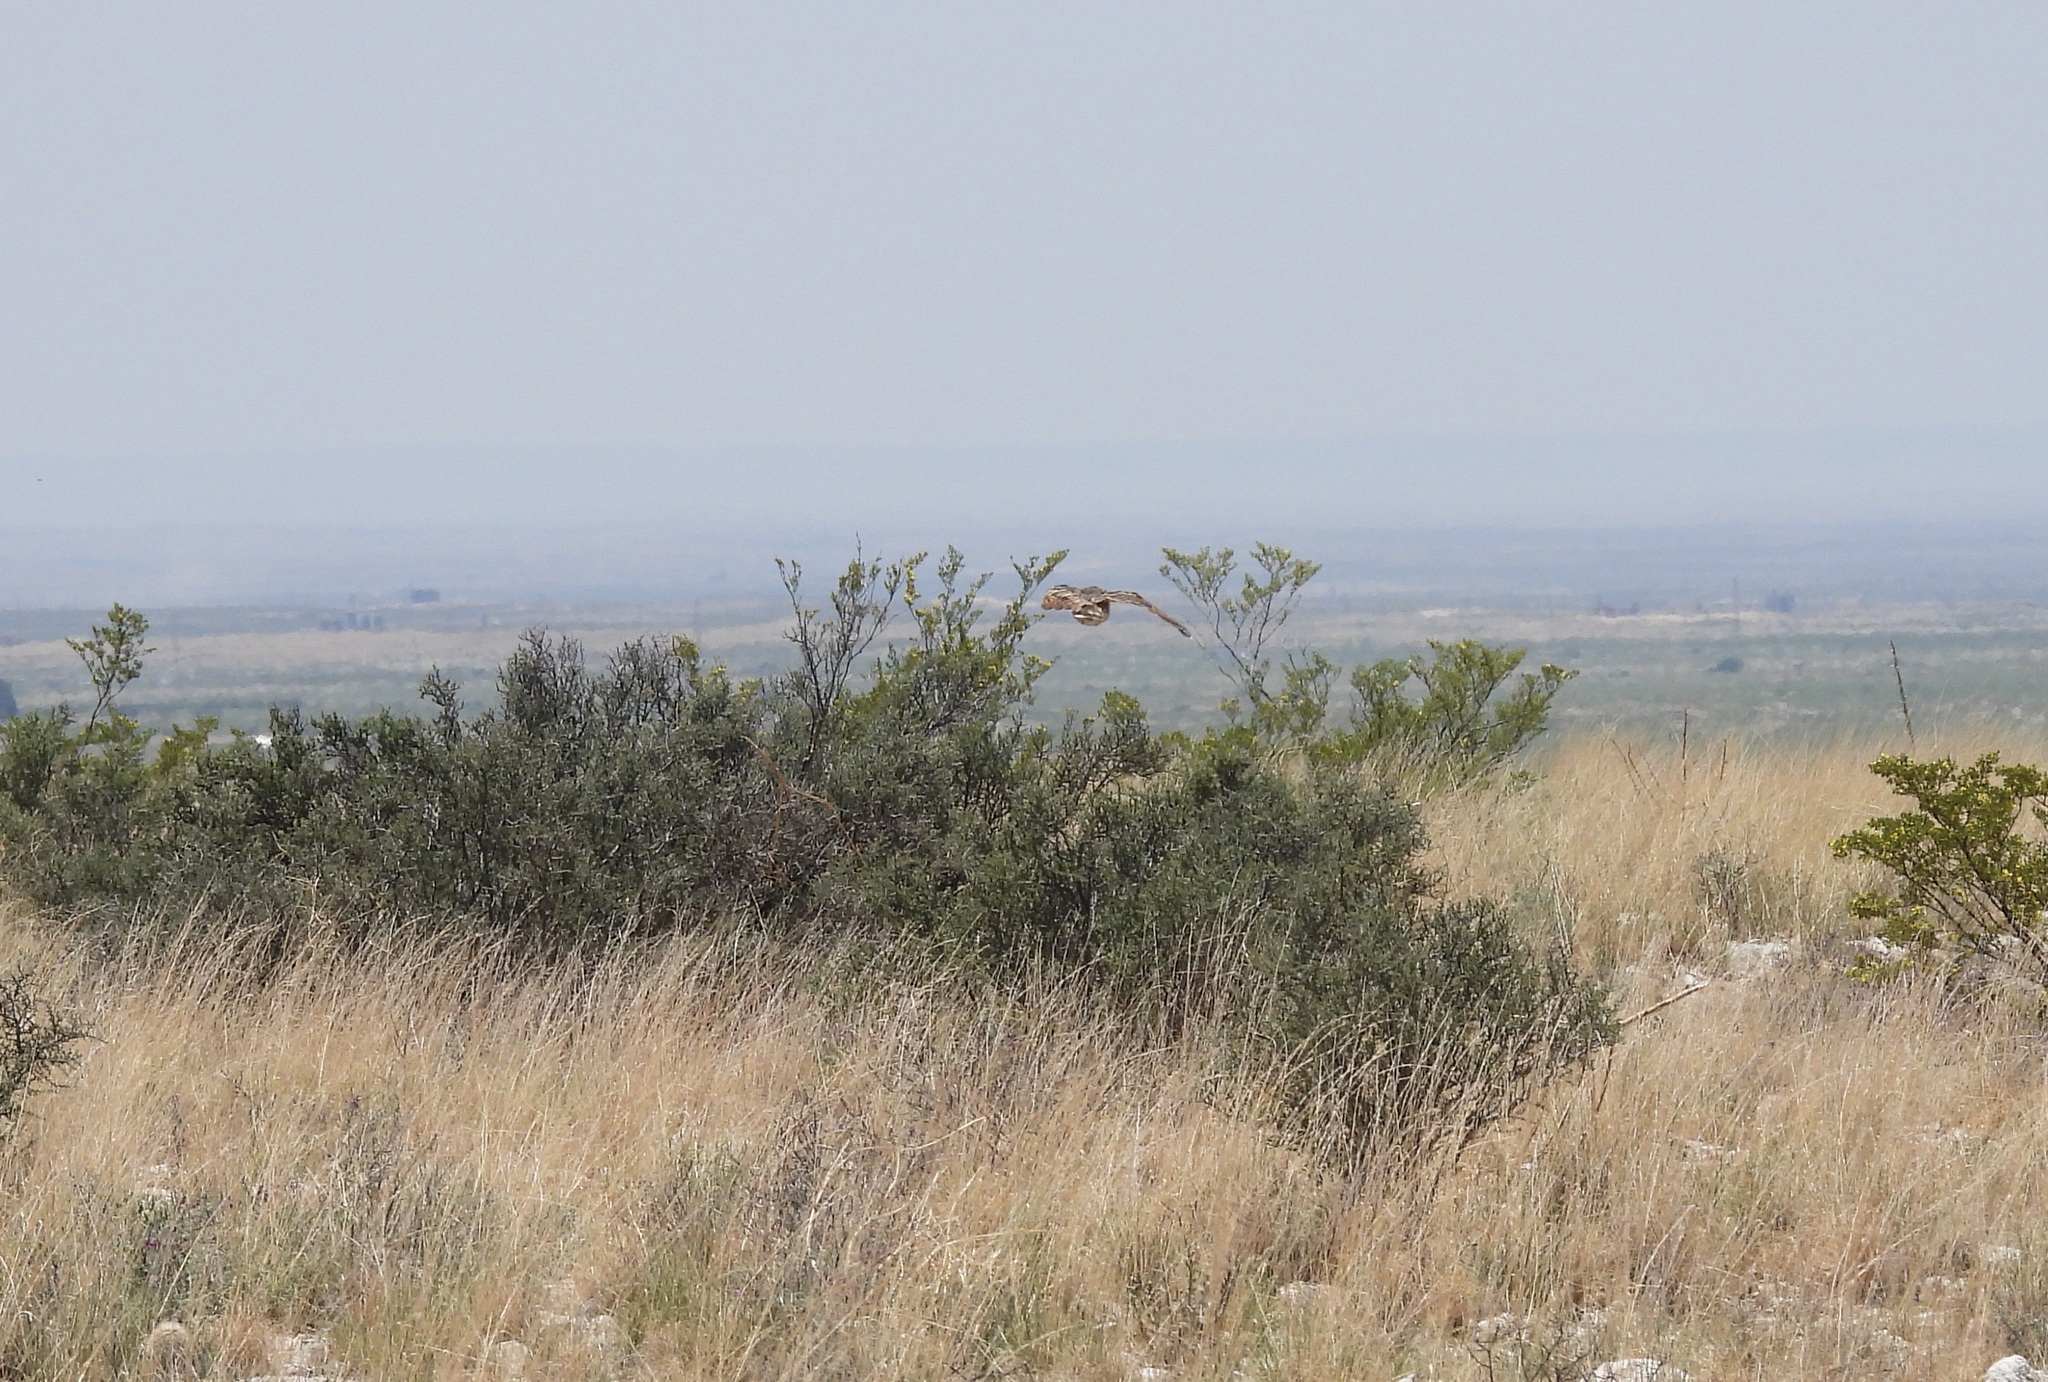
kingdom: Animalia
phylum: Chordata
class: Aves
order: Caprimulgiformes
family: Caprimulgidae
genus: Phalaenoptilus
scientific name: Phalaenoptilus nuttallii
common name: Common poorwill
